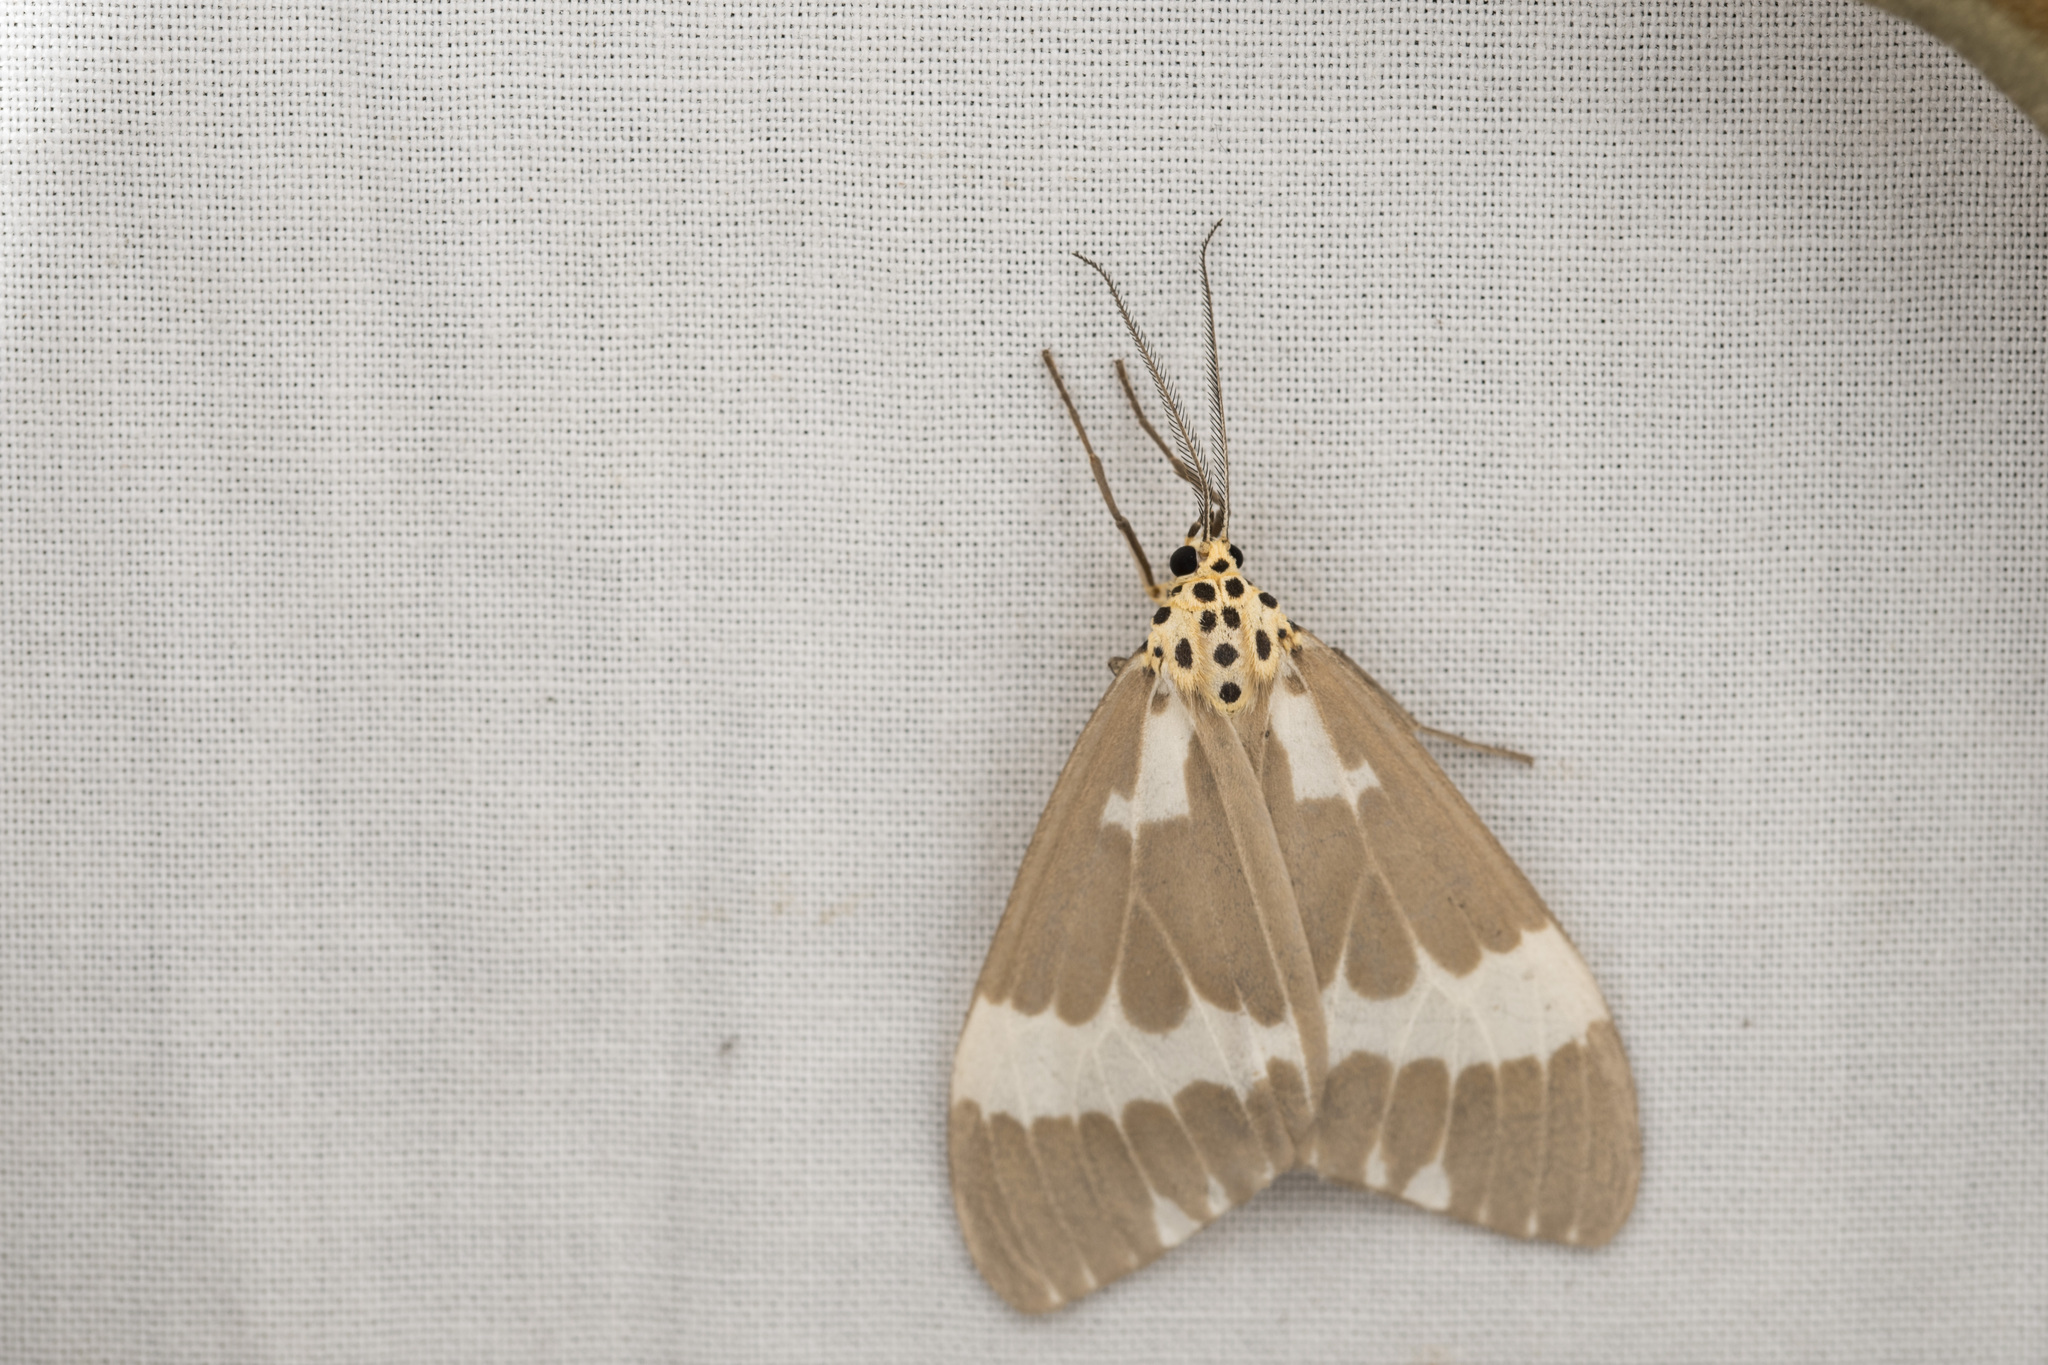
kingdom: Animalia
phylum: Arthropoda
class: Insecta
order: Lepidoptera
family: Erebidae
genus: Nyctemera
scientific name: Nyctemera arctata
